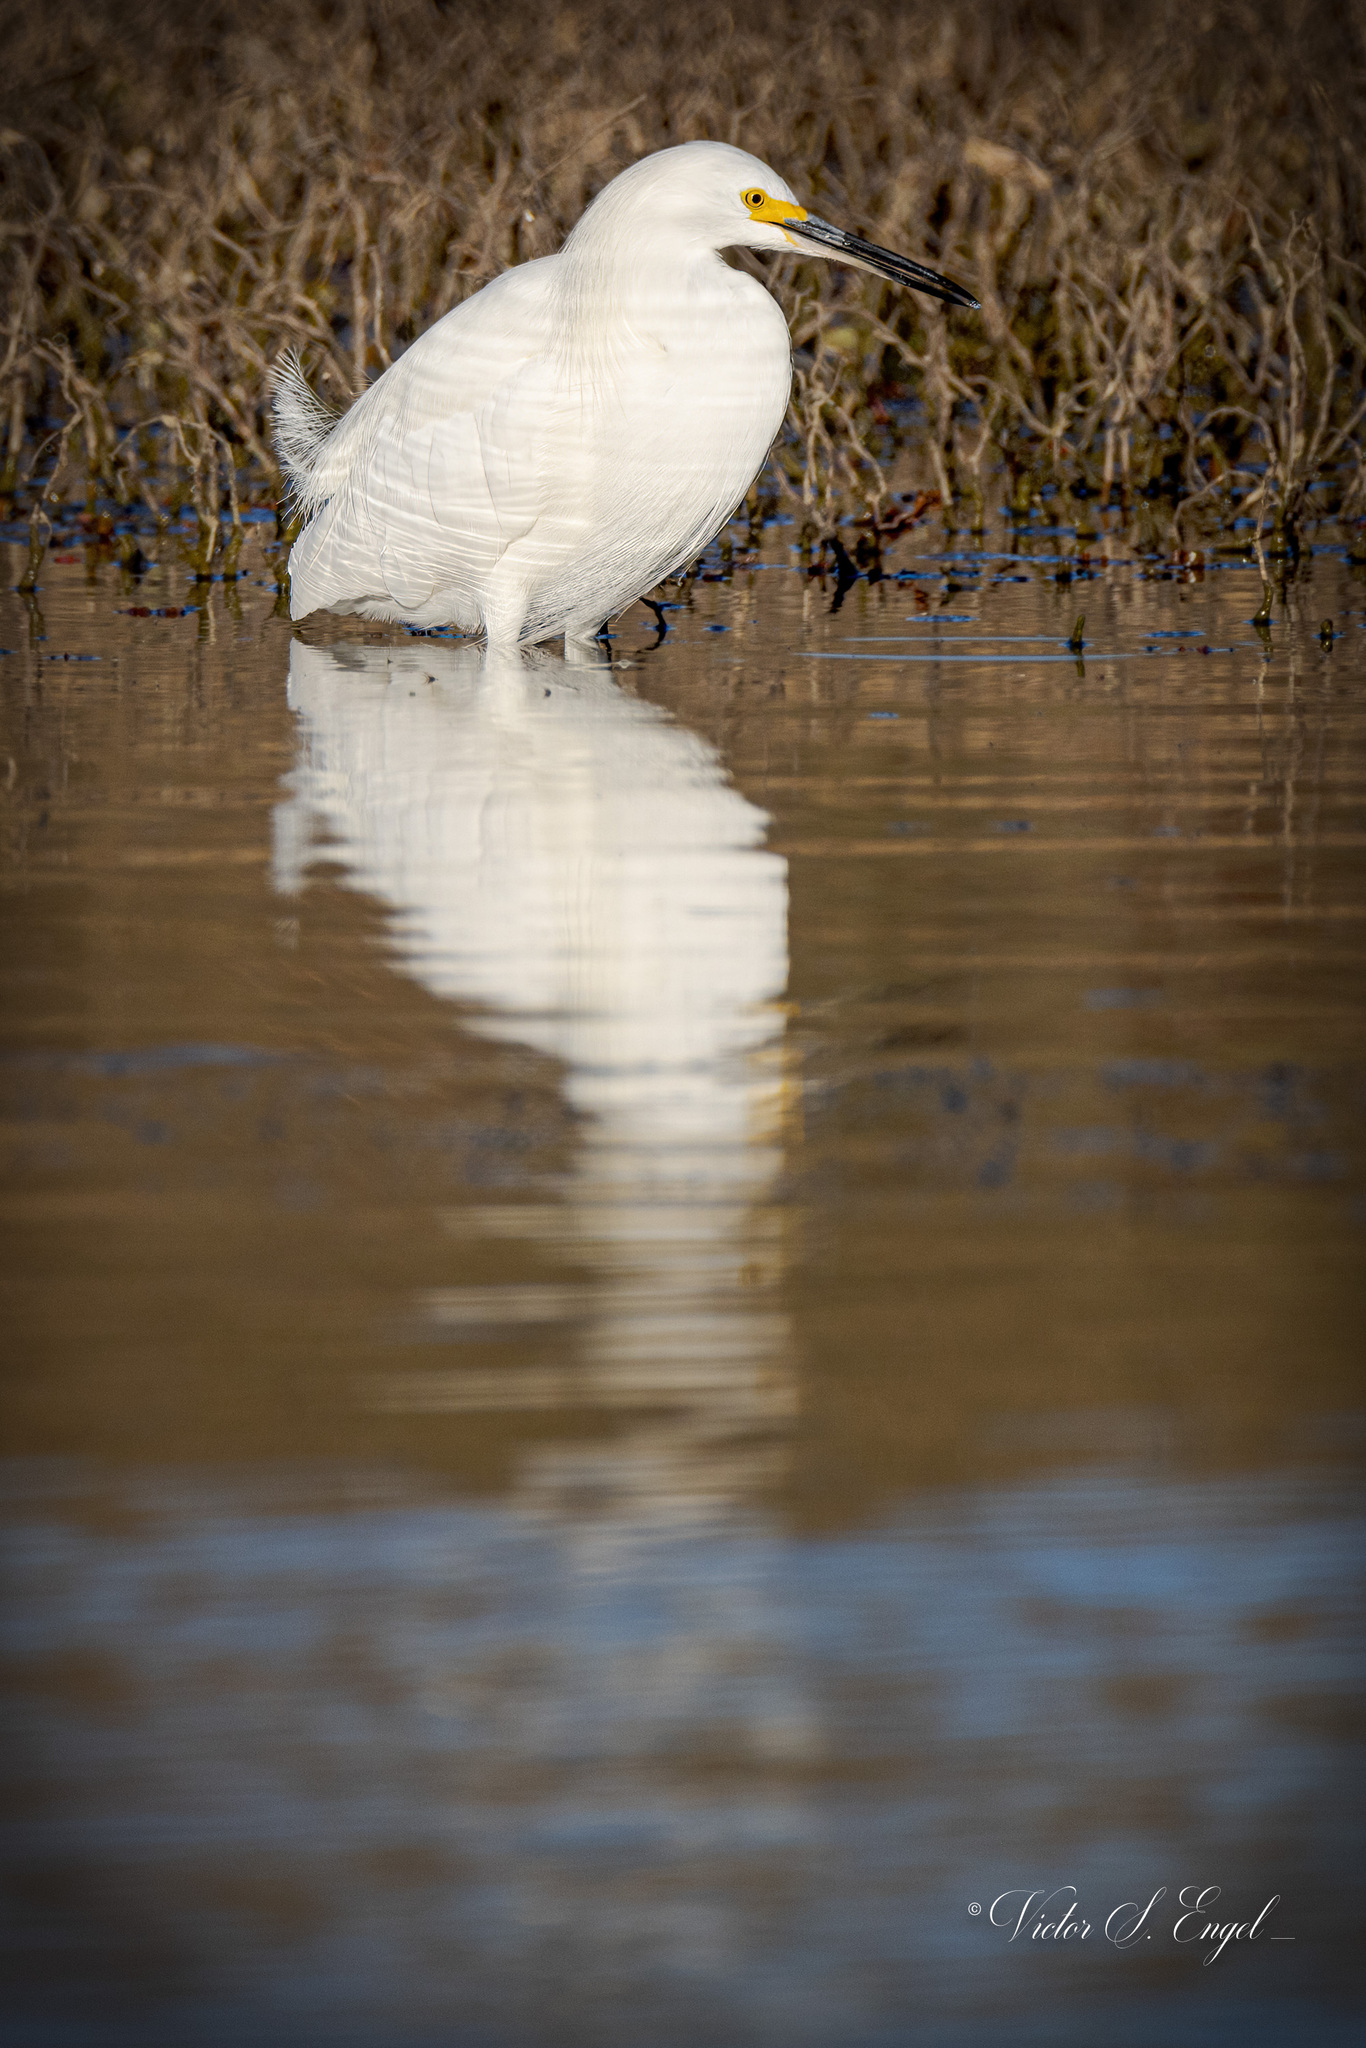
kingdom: Animalia
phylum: Chordata
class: Aves
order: Pelecaniformes
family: Ardeidae
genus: Egretta
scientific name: Egretta thula
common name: Snowy egret
